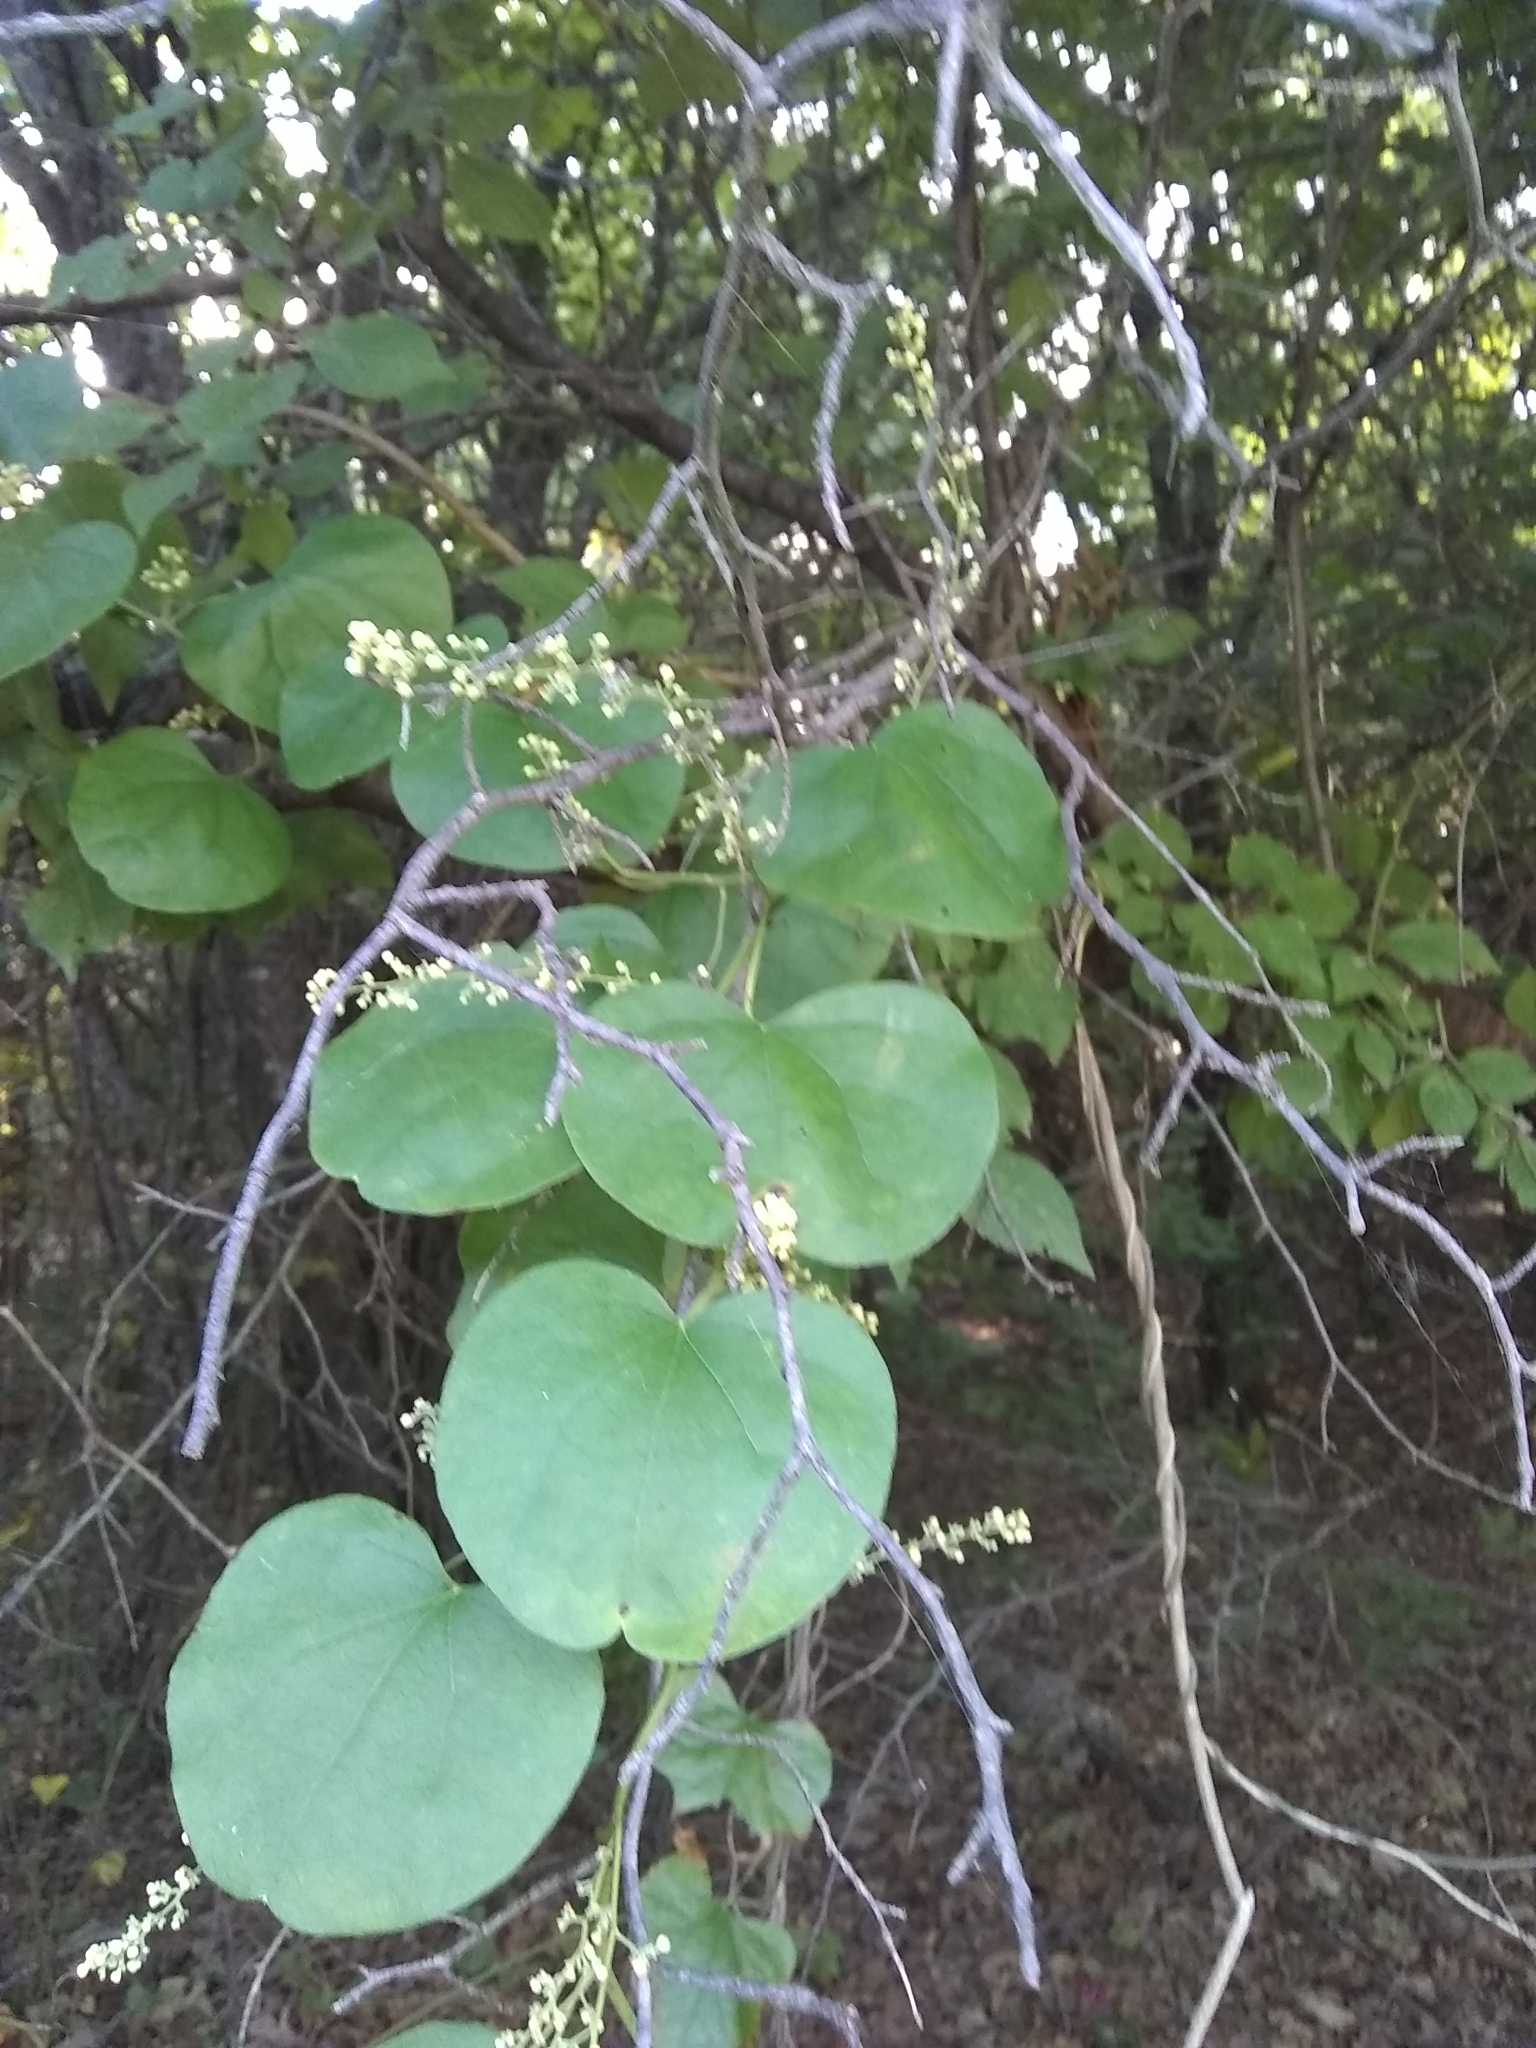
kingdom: Plantae
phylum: Tracheophyta
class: Magnoliopsida
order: Ranunculales
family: Menispermaceae
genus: Cocculus
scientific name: Cocculus carolinus
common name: Carolina moonseed
